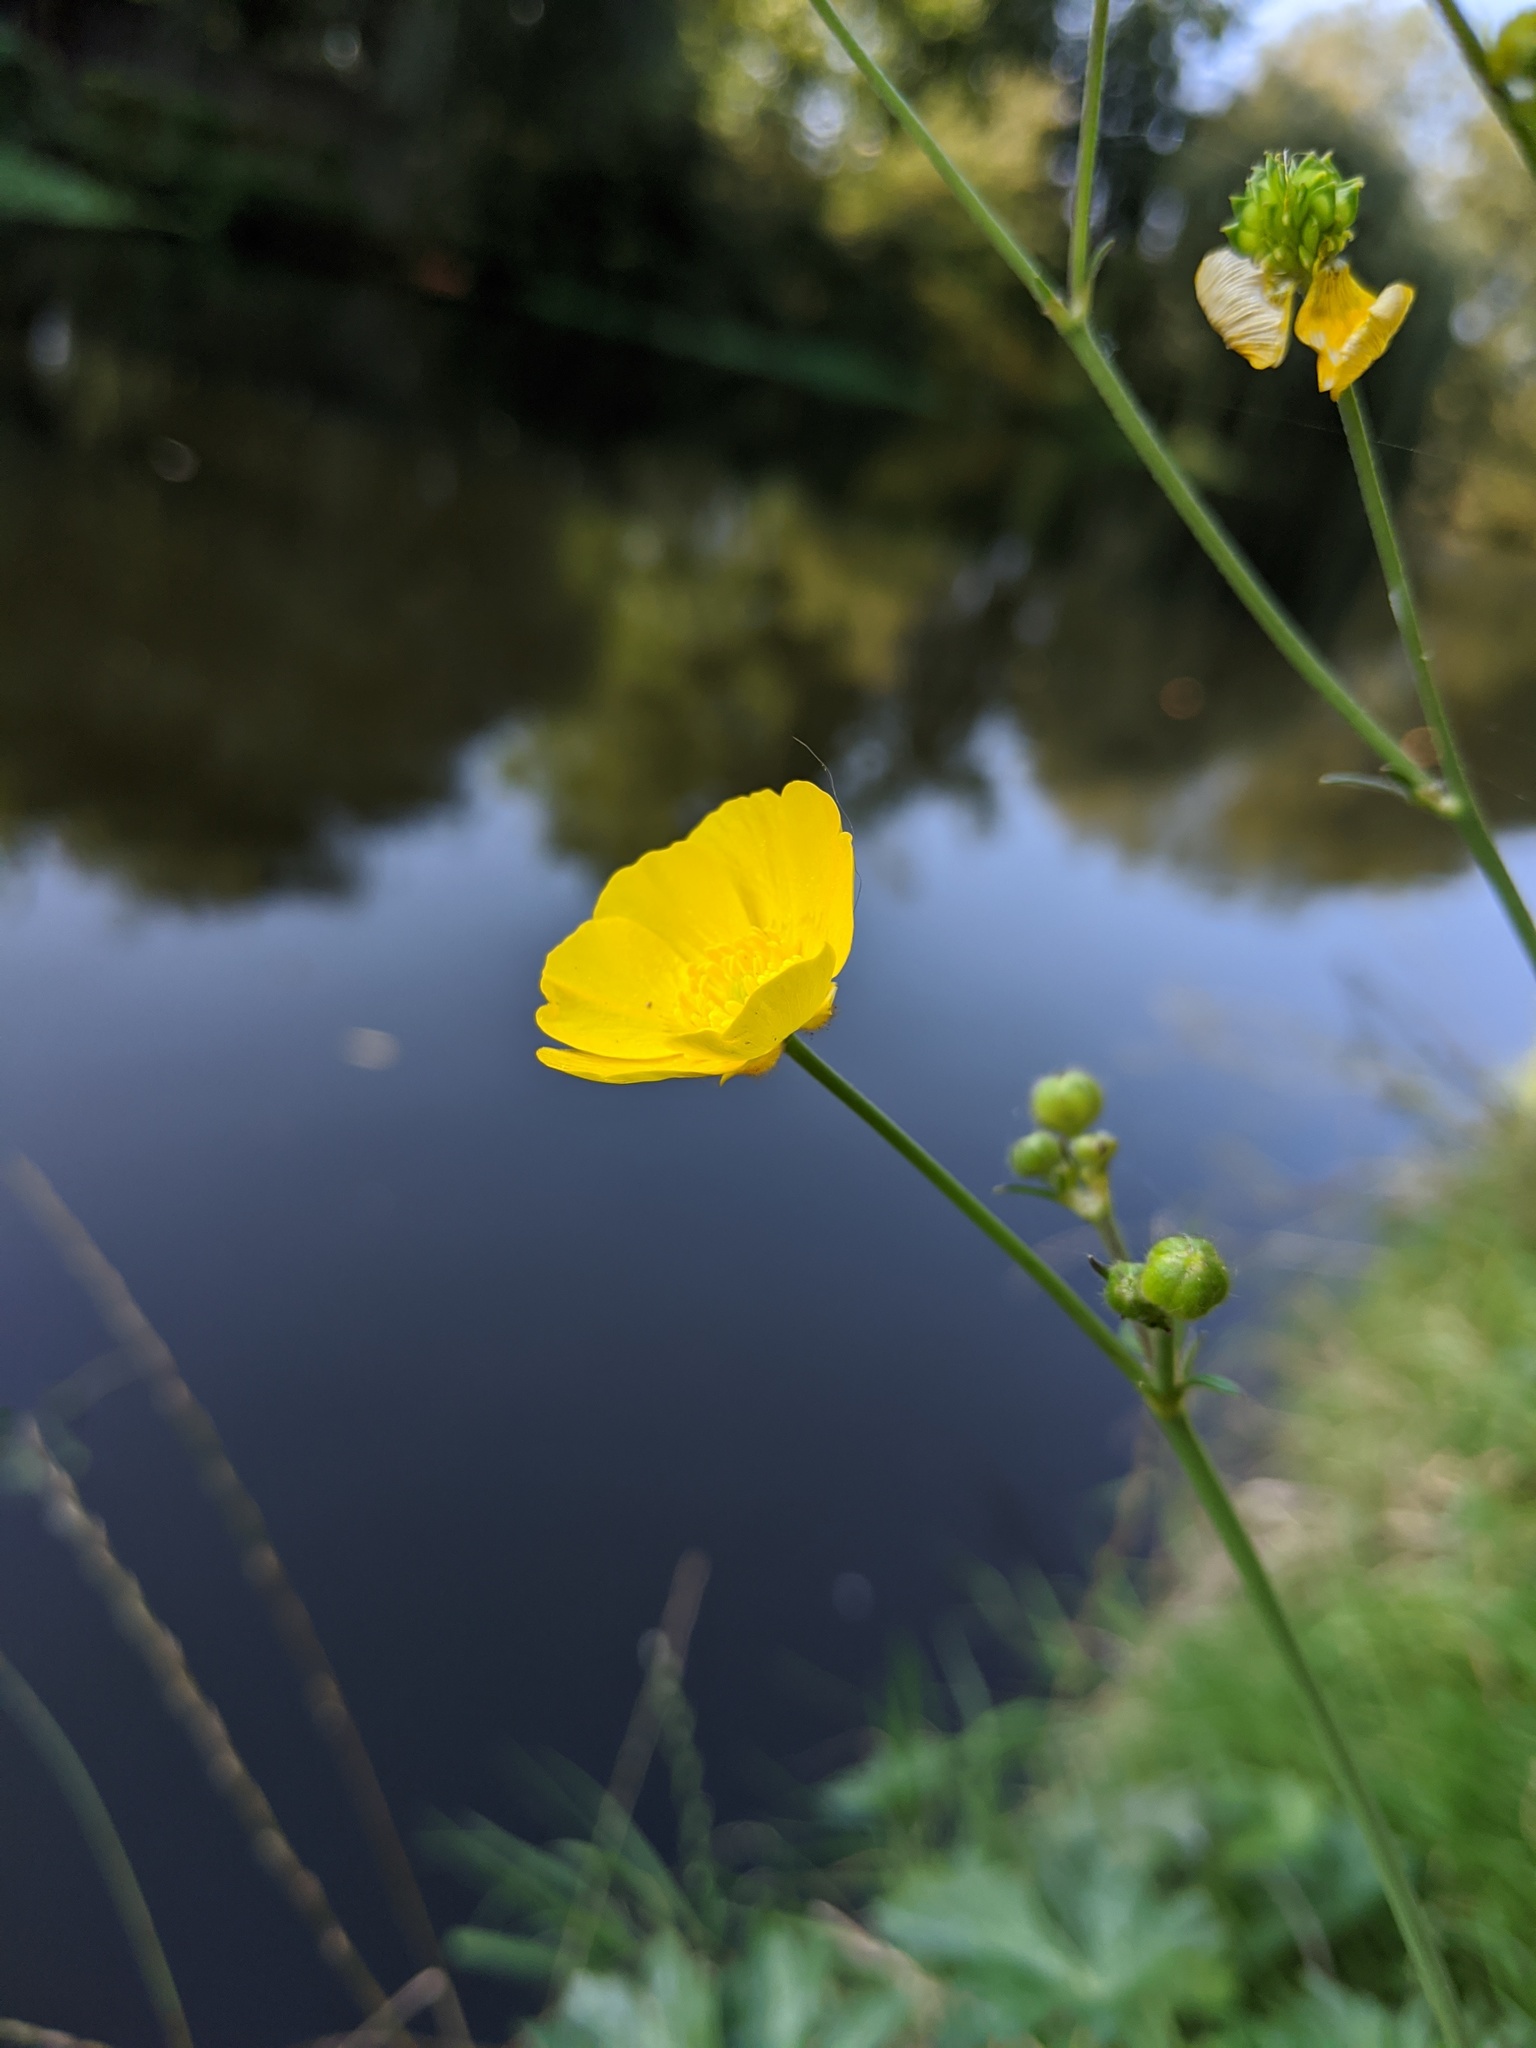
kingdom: Plantae
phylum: Tracheophyta
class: Magnoliopsida
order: Ranunculales
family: Ranunculaceae
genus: Ranunculus
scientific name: Ranunculus acris
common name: Meadow buttercup
